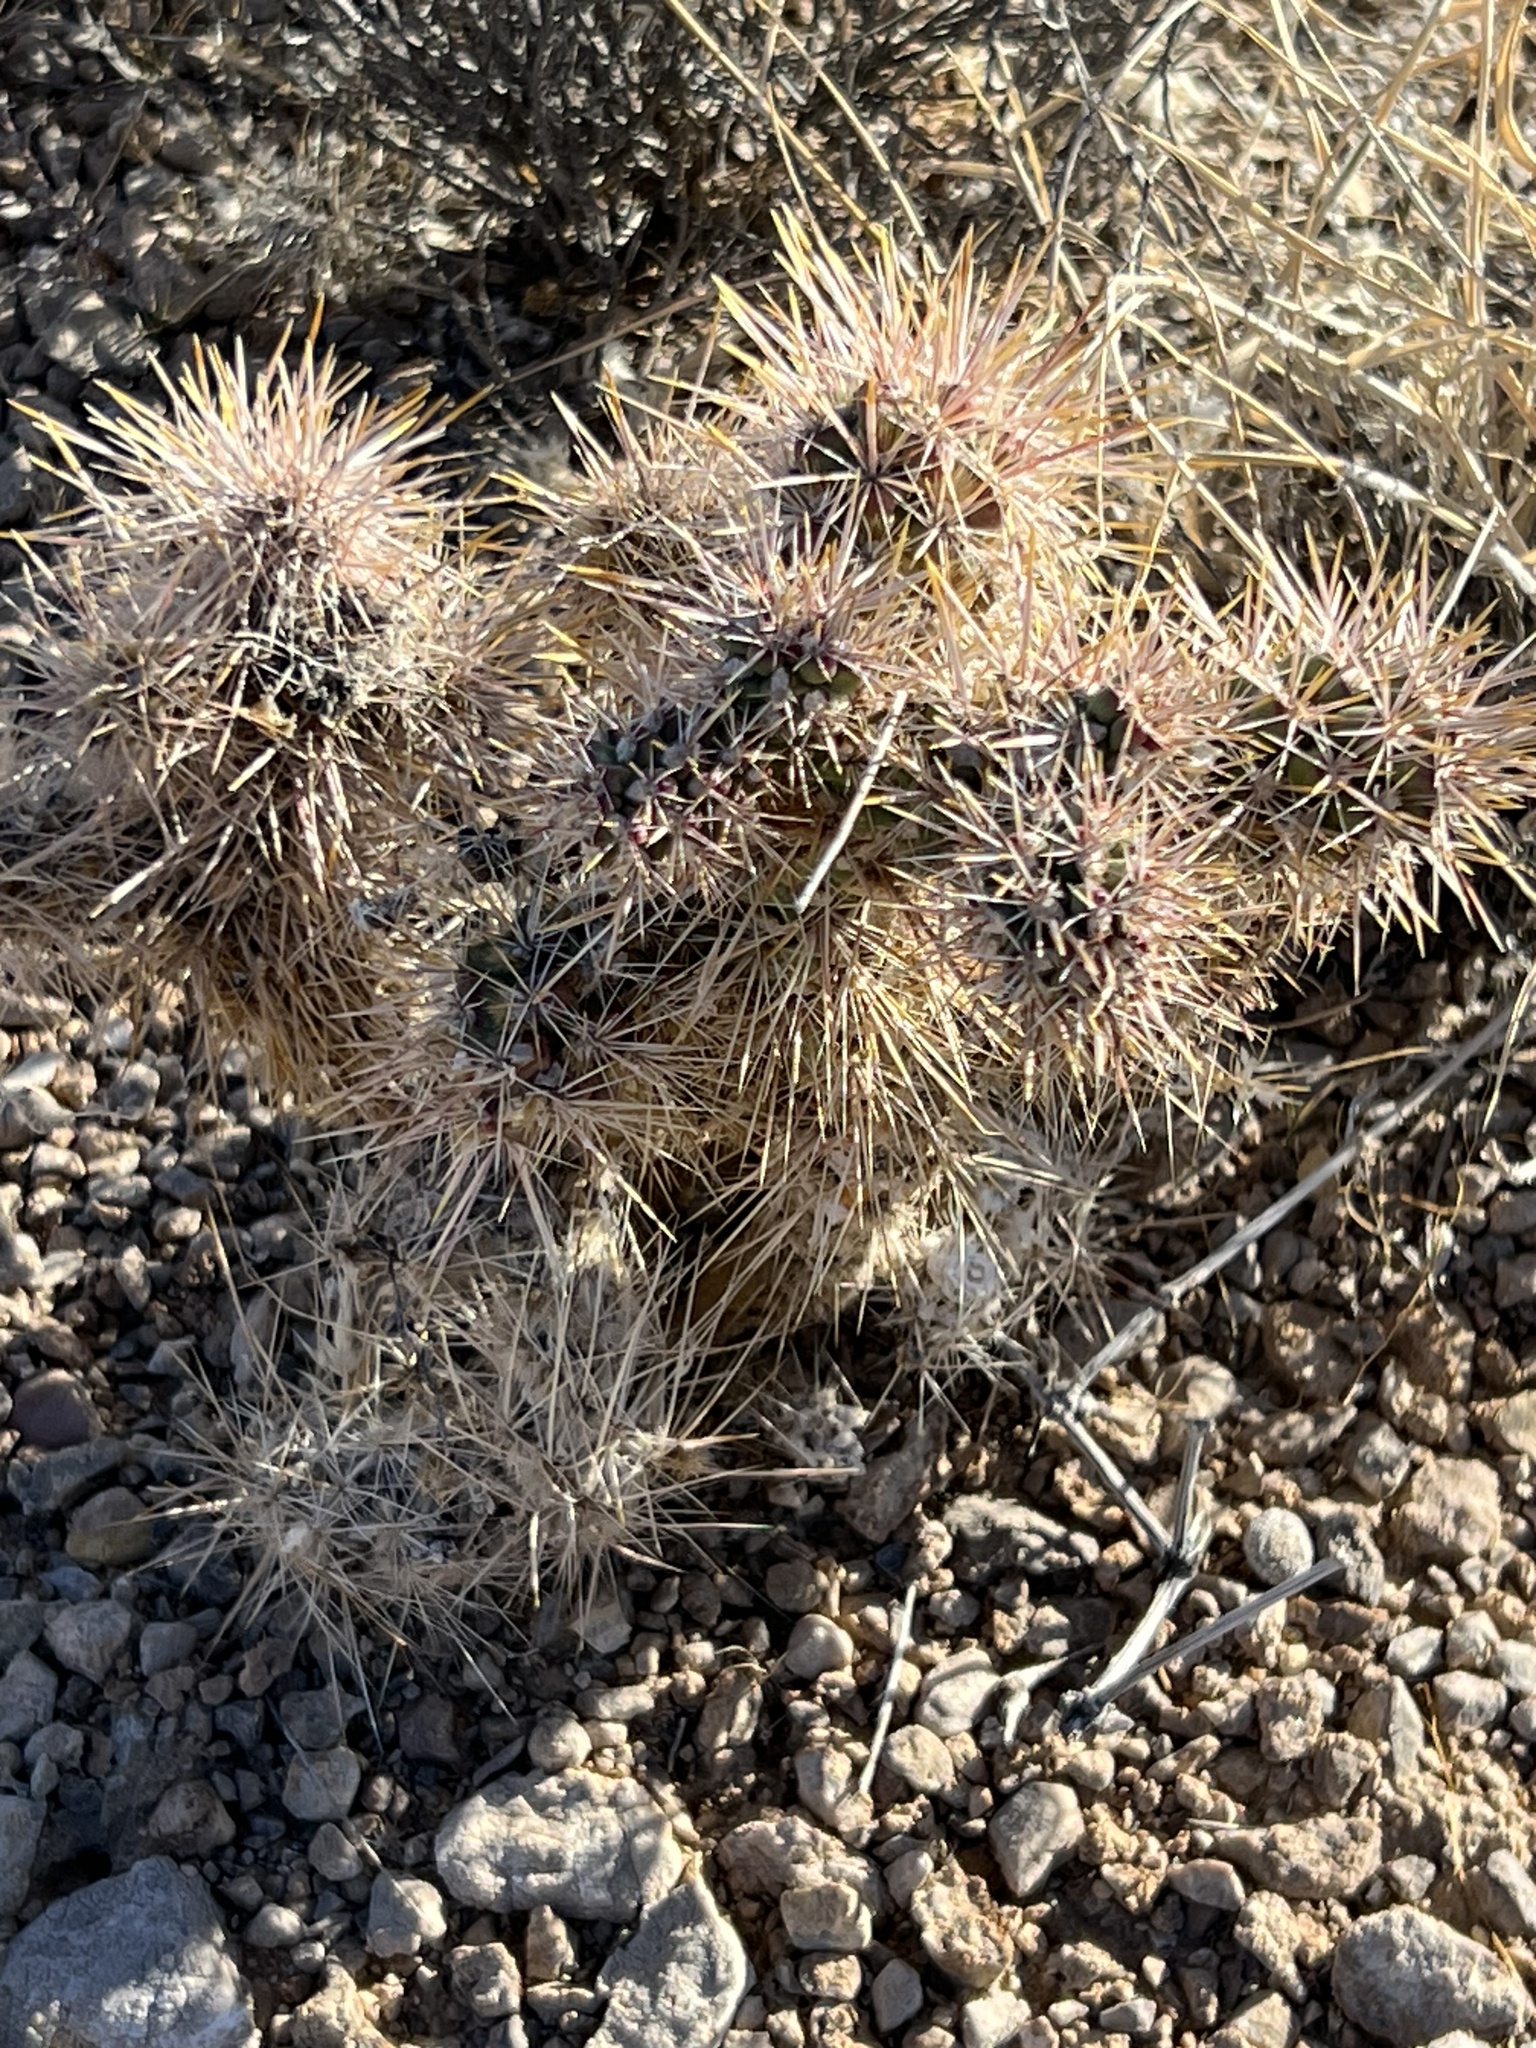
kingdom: Plantae
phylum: Tracheophyta
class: Magnoliopsida
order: Caryophyllales
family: Cactaceae
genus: Cylindropuntia
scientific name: Cylindropuntia echinocarpa
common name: Ground cholla
